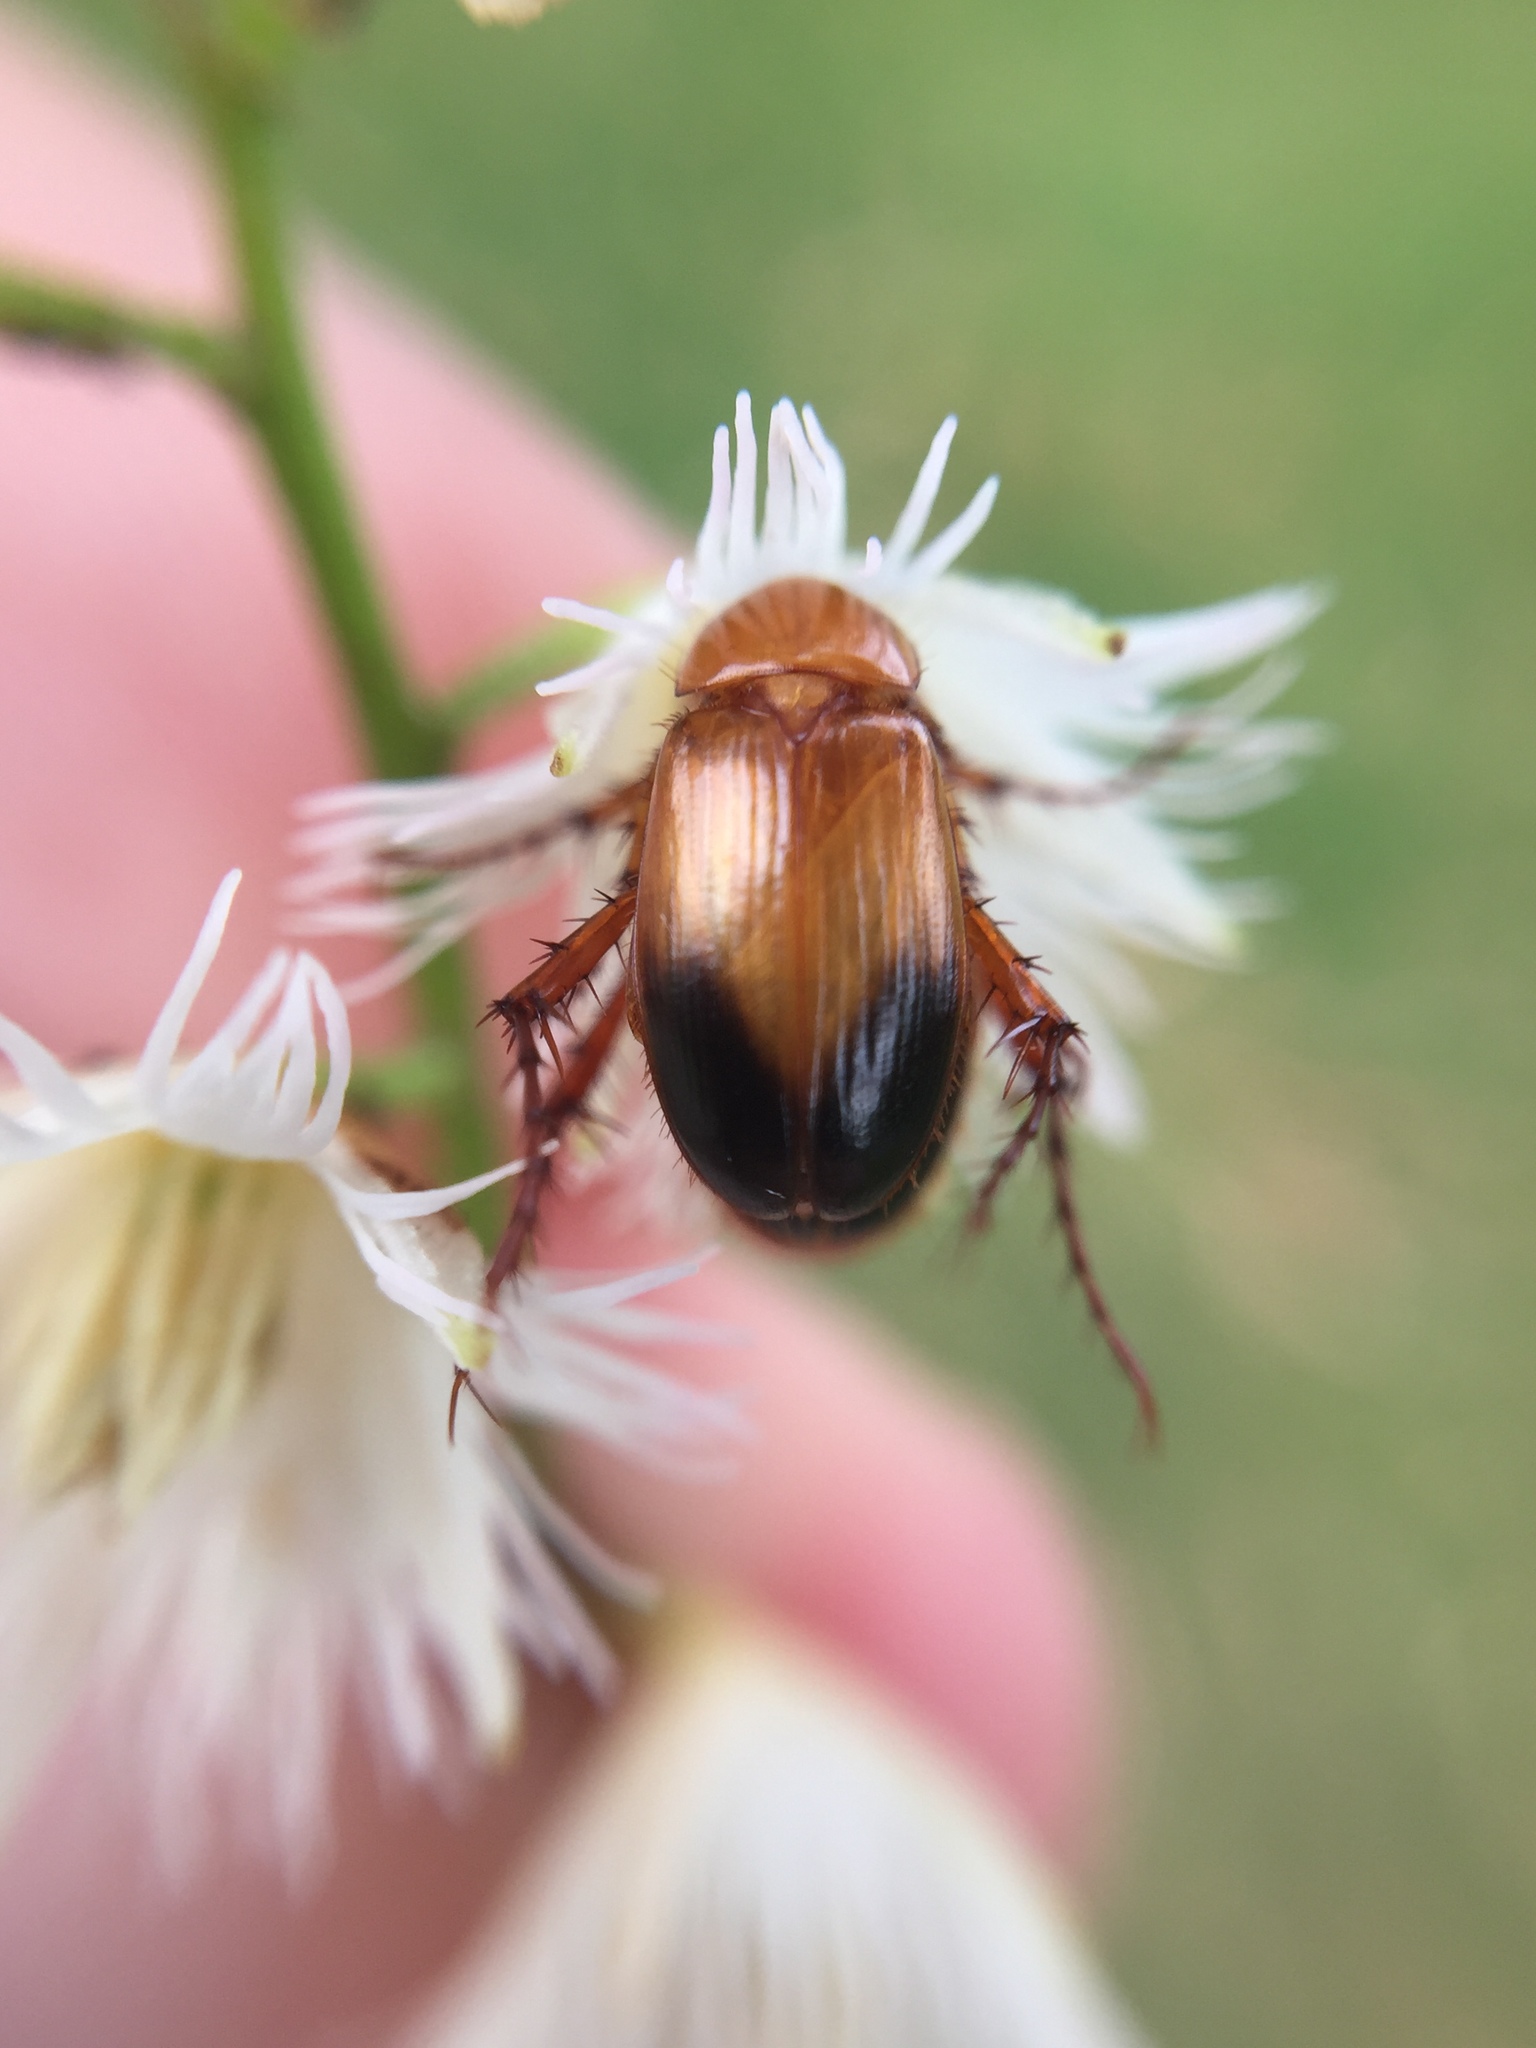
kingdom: Animalia
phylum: Arthropoda
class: Insecta
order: Coleoptera
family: Scarabaeidae
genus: Phyllotocus
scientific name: Phyllotocus macleayi
